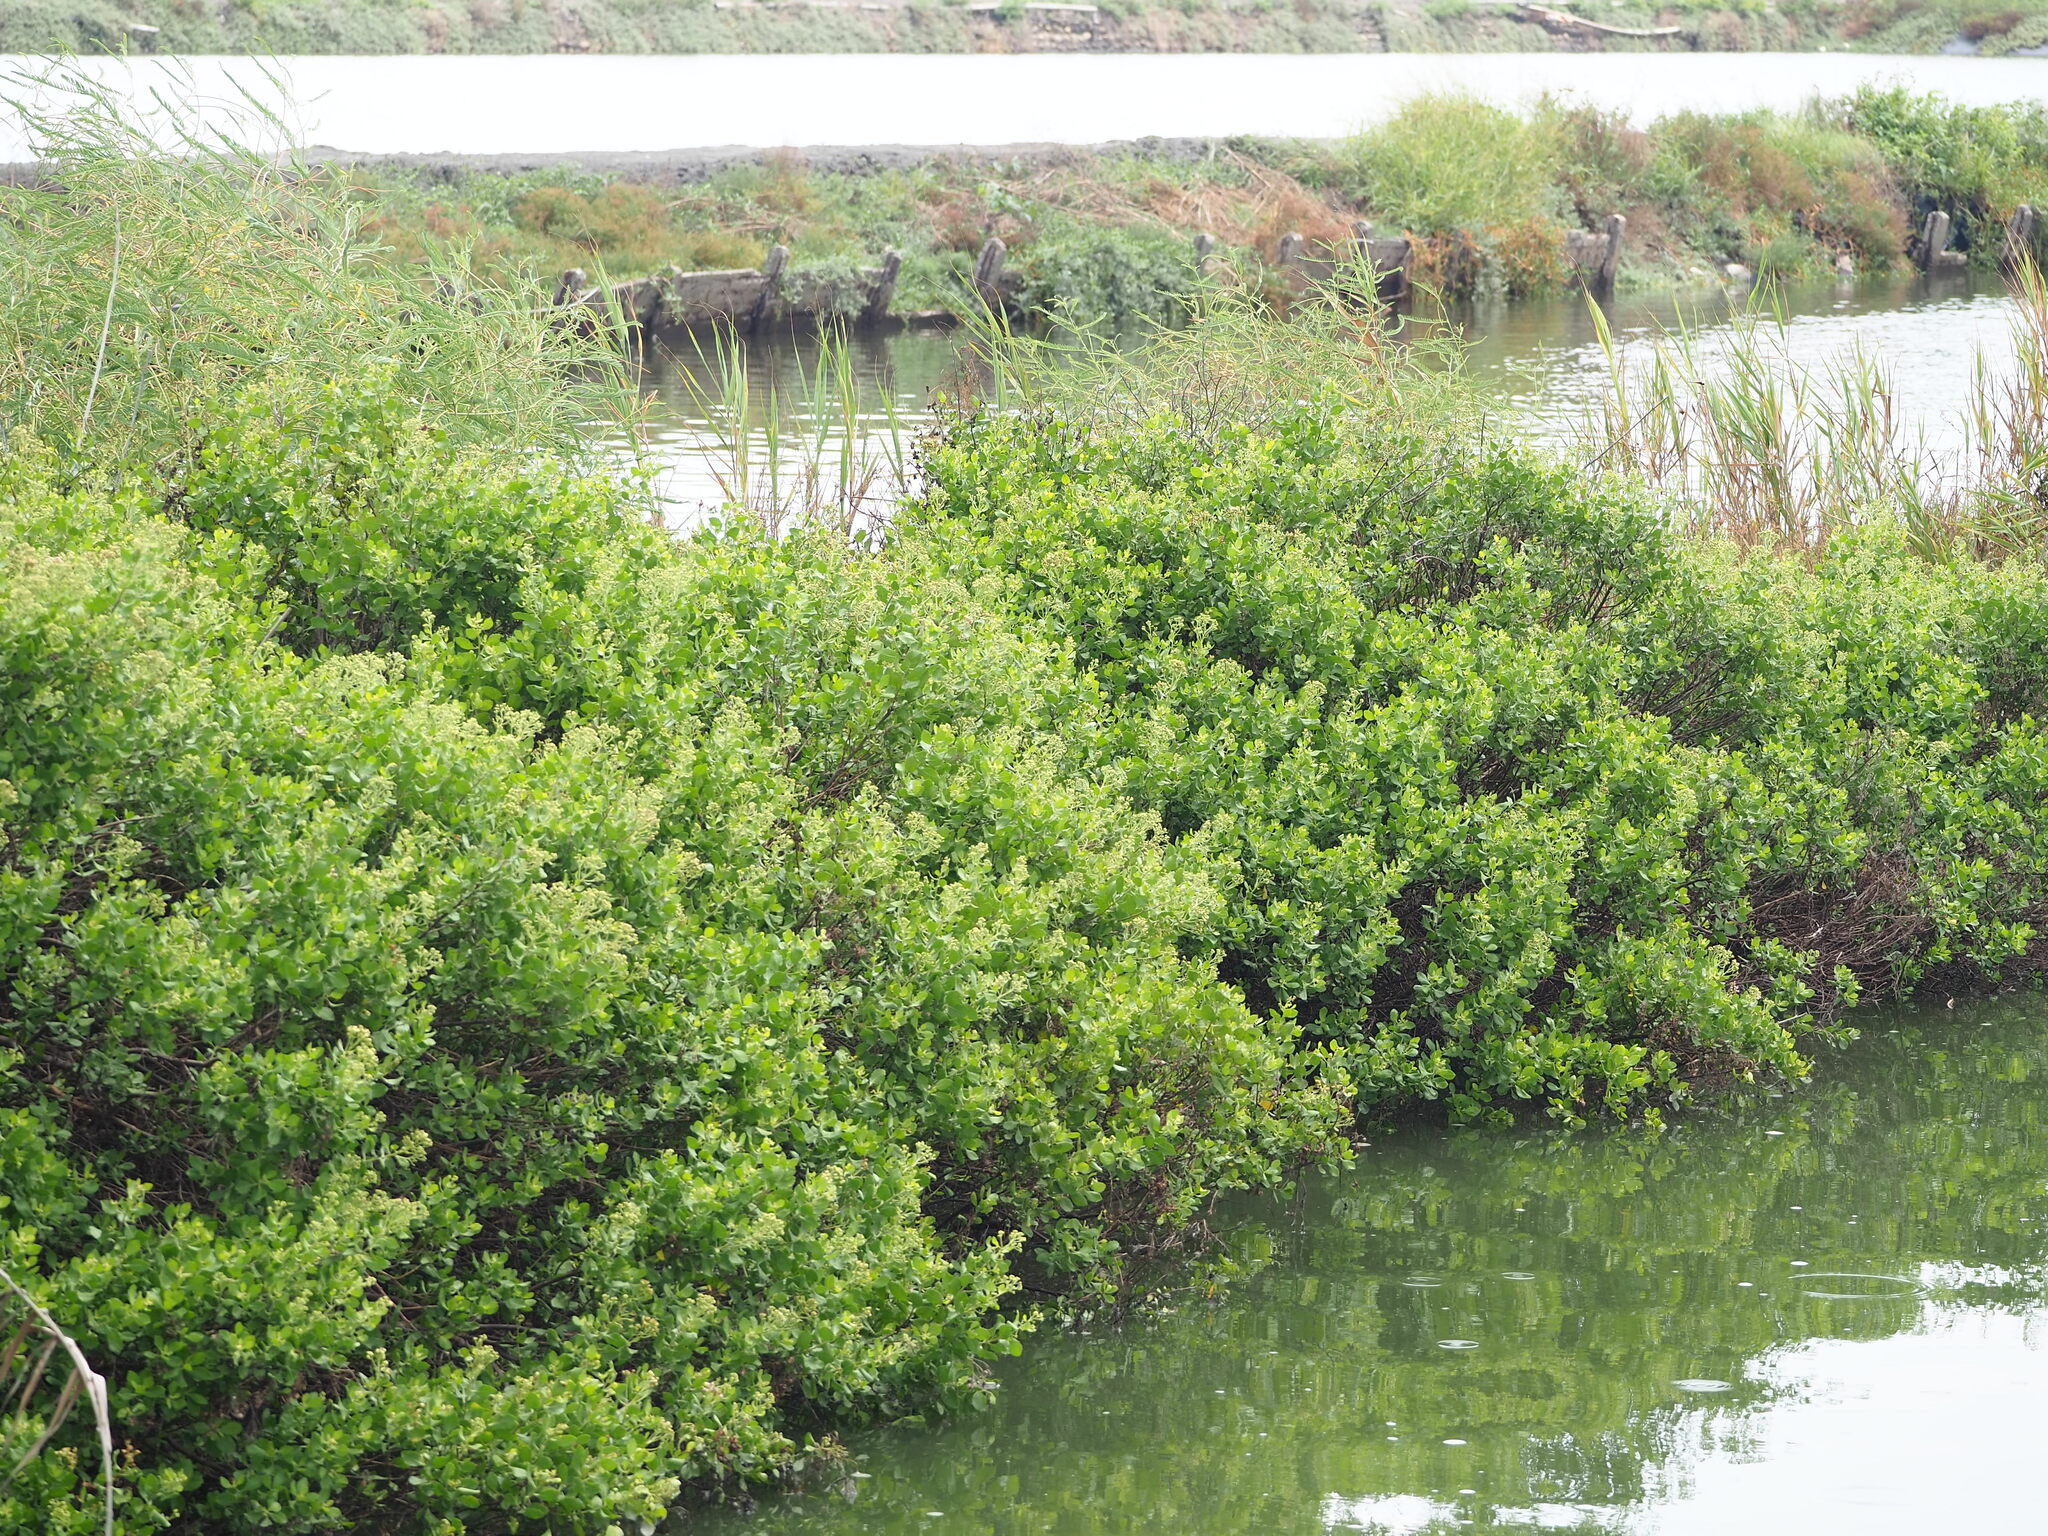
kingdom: Plantae
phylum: Tracheophyta
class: Magnoliopsida
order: Asterales
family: Asteraceae
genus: Pluchea
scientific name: Pluchea indica
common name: Indian fleabane
